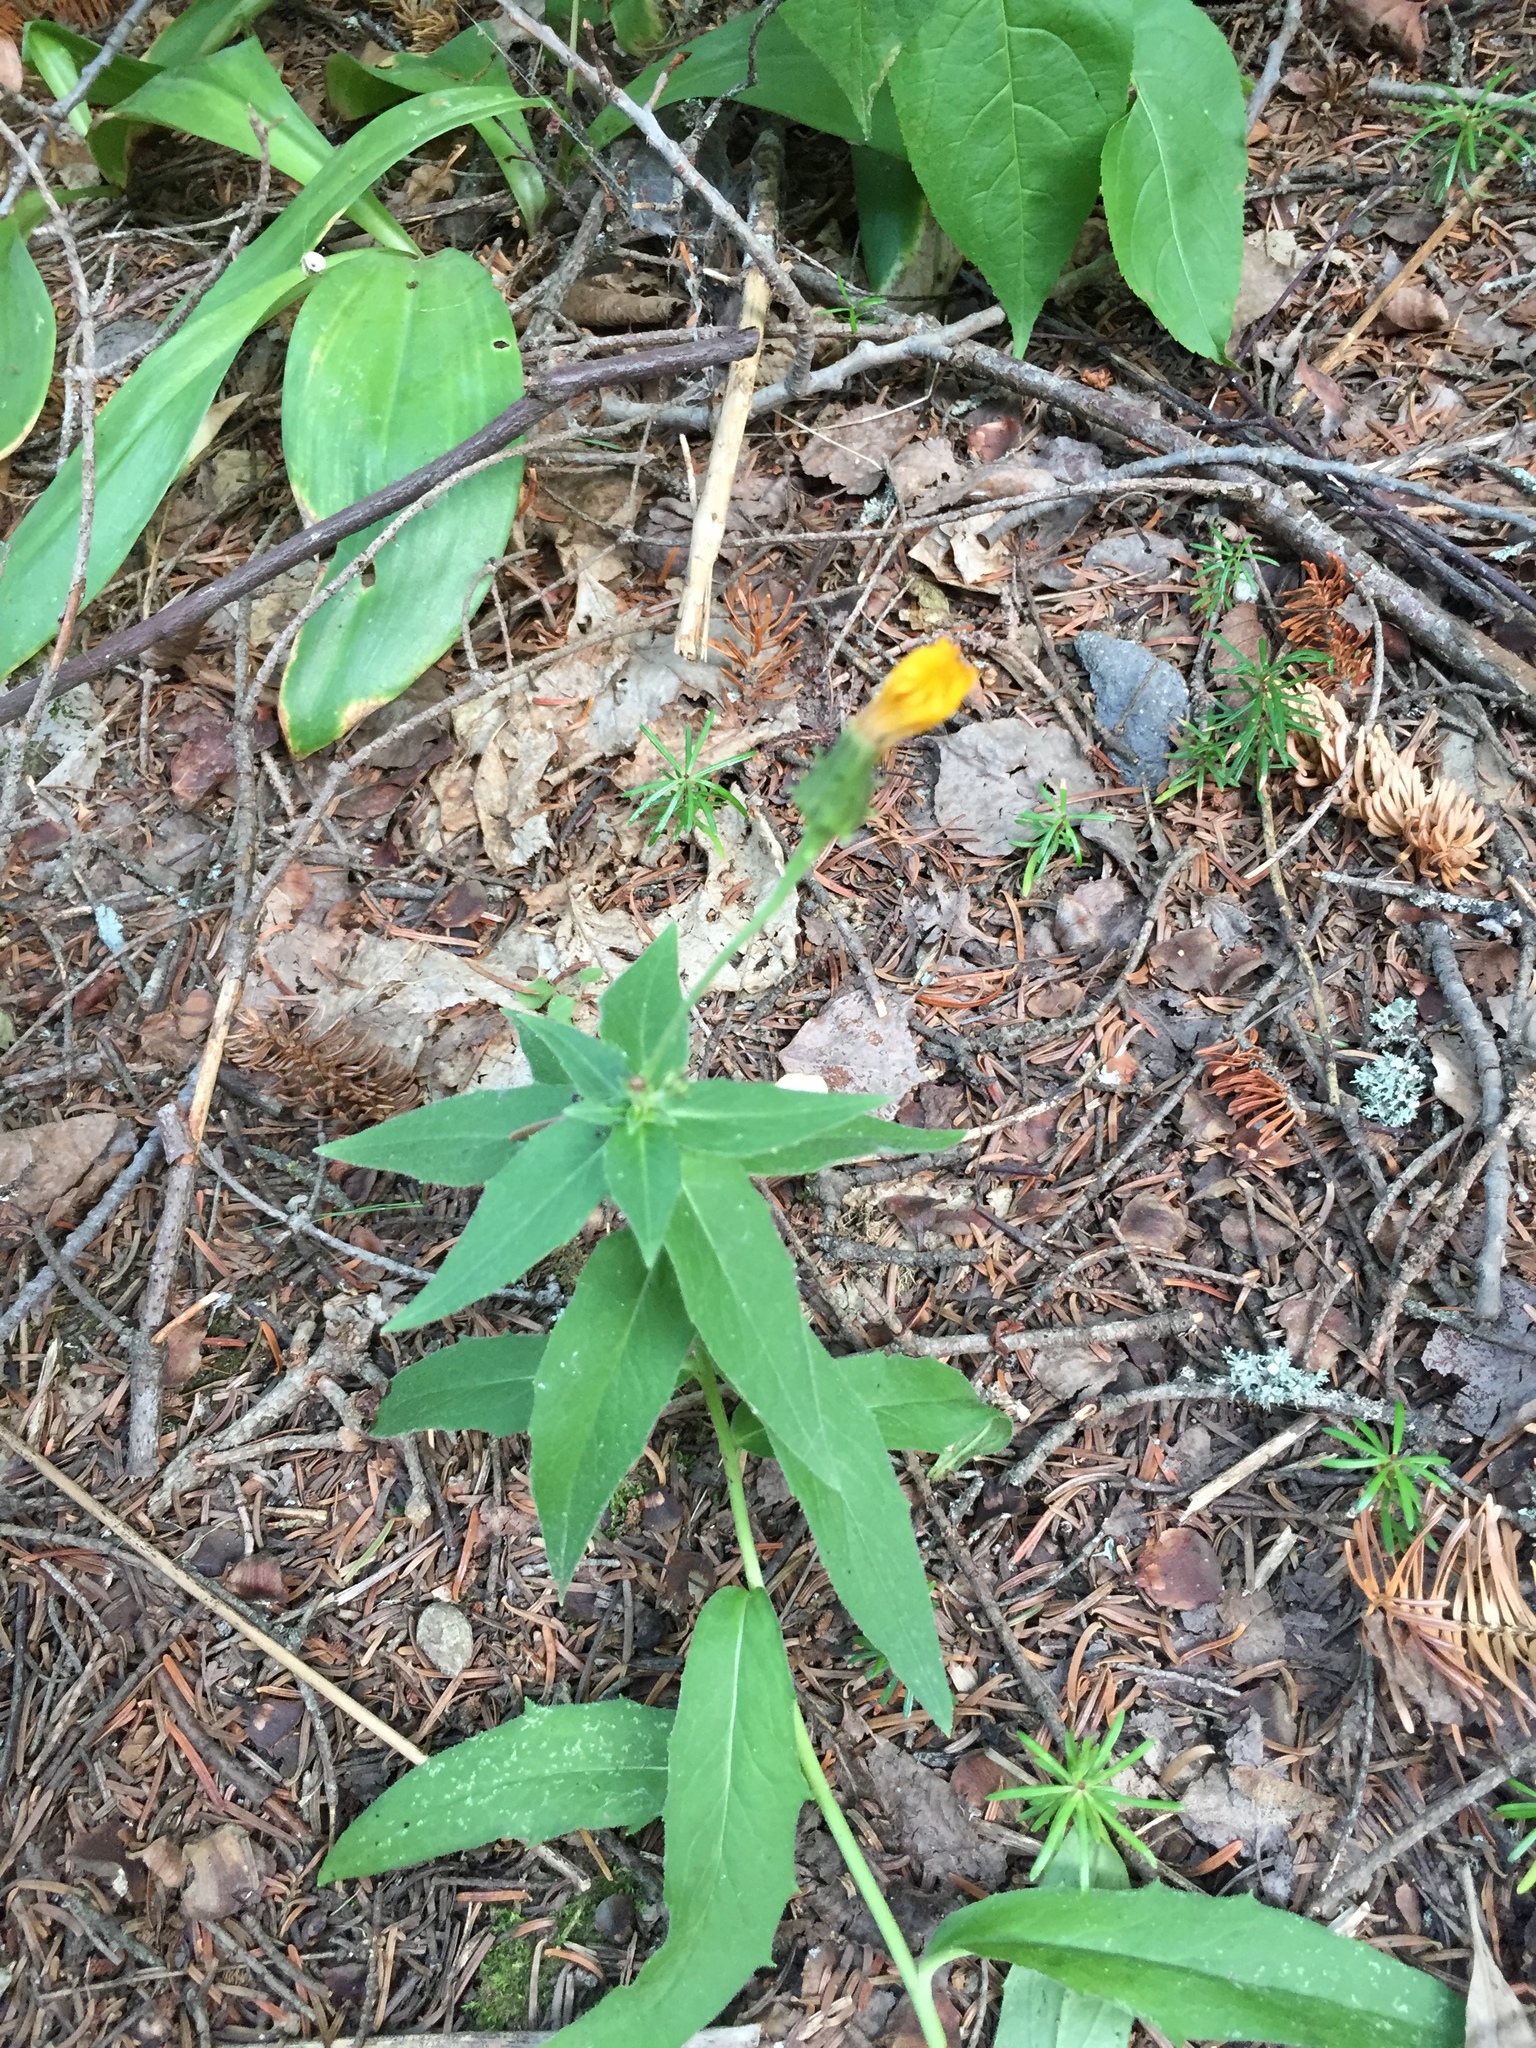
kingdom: Plantae
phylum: Tracheophyta
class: Magnoliopsida
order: Asterales
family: Asteraceae
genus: Hieracium
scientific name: Hieracium umbellatum
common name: Northern hawkweed
